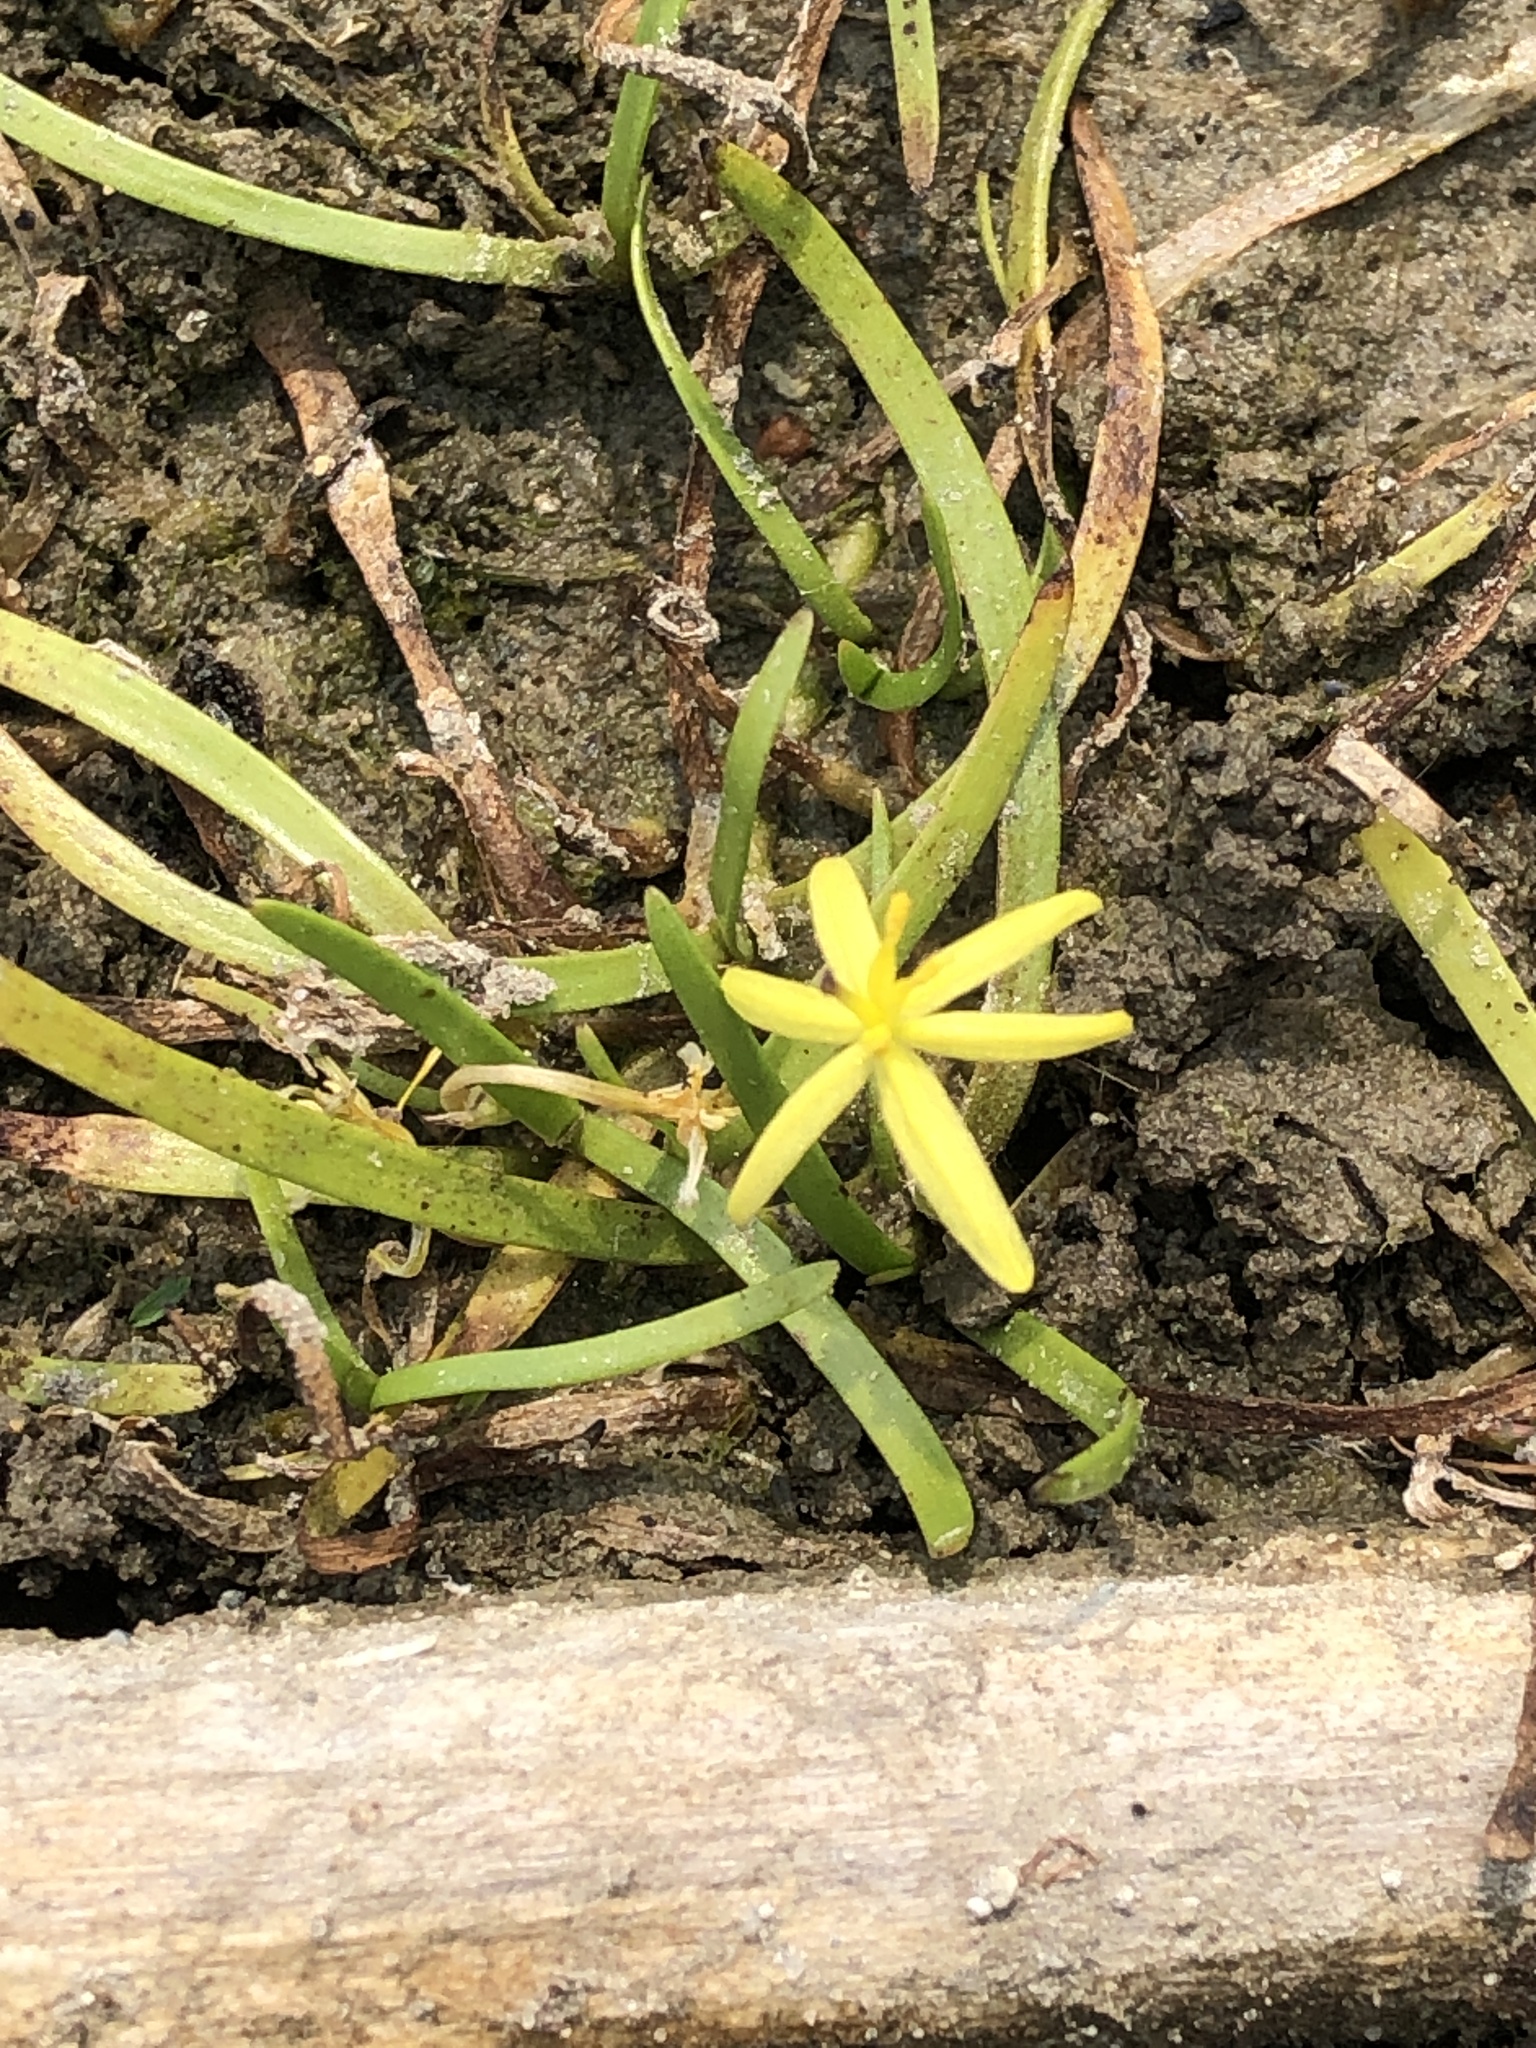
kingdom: Plantae
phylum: Tracheophyta
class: Liliopsida
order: Commelinales
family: Pontederiaceae
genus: Heteranthera
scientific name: Heteranthera dubia
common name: Grass-leaved mud plantain
